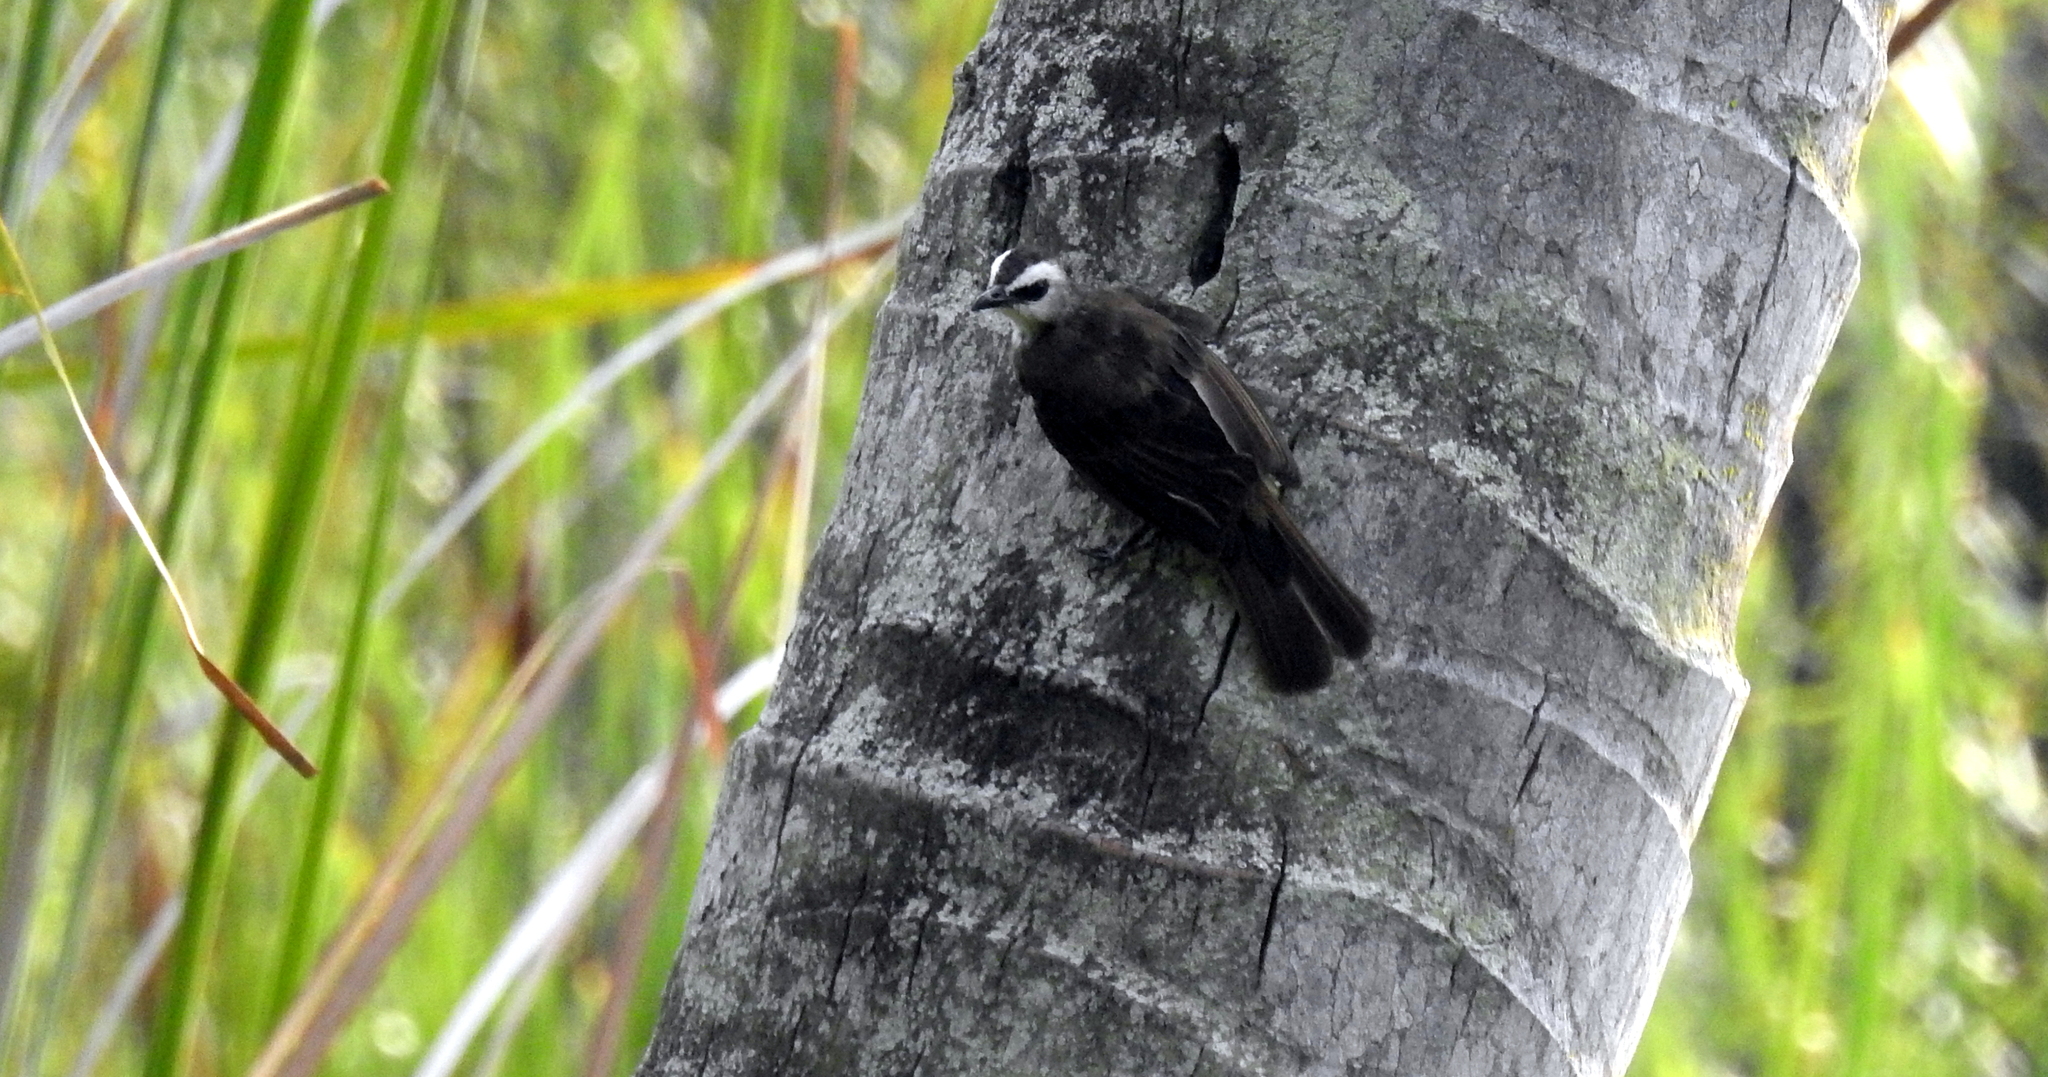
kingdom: Animalia
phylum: Chordata
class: Aves
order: Passeriformes
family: Pycnonotidae
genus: Pycnonotus
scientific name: Pycnonotus goiavier
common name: Yellow-vented bulbul
